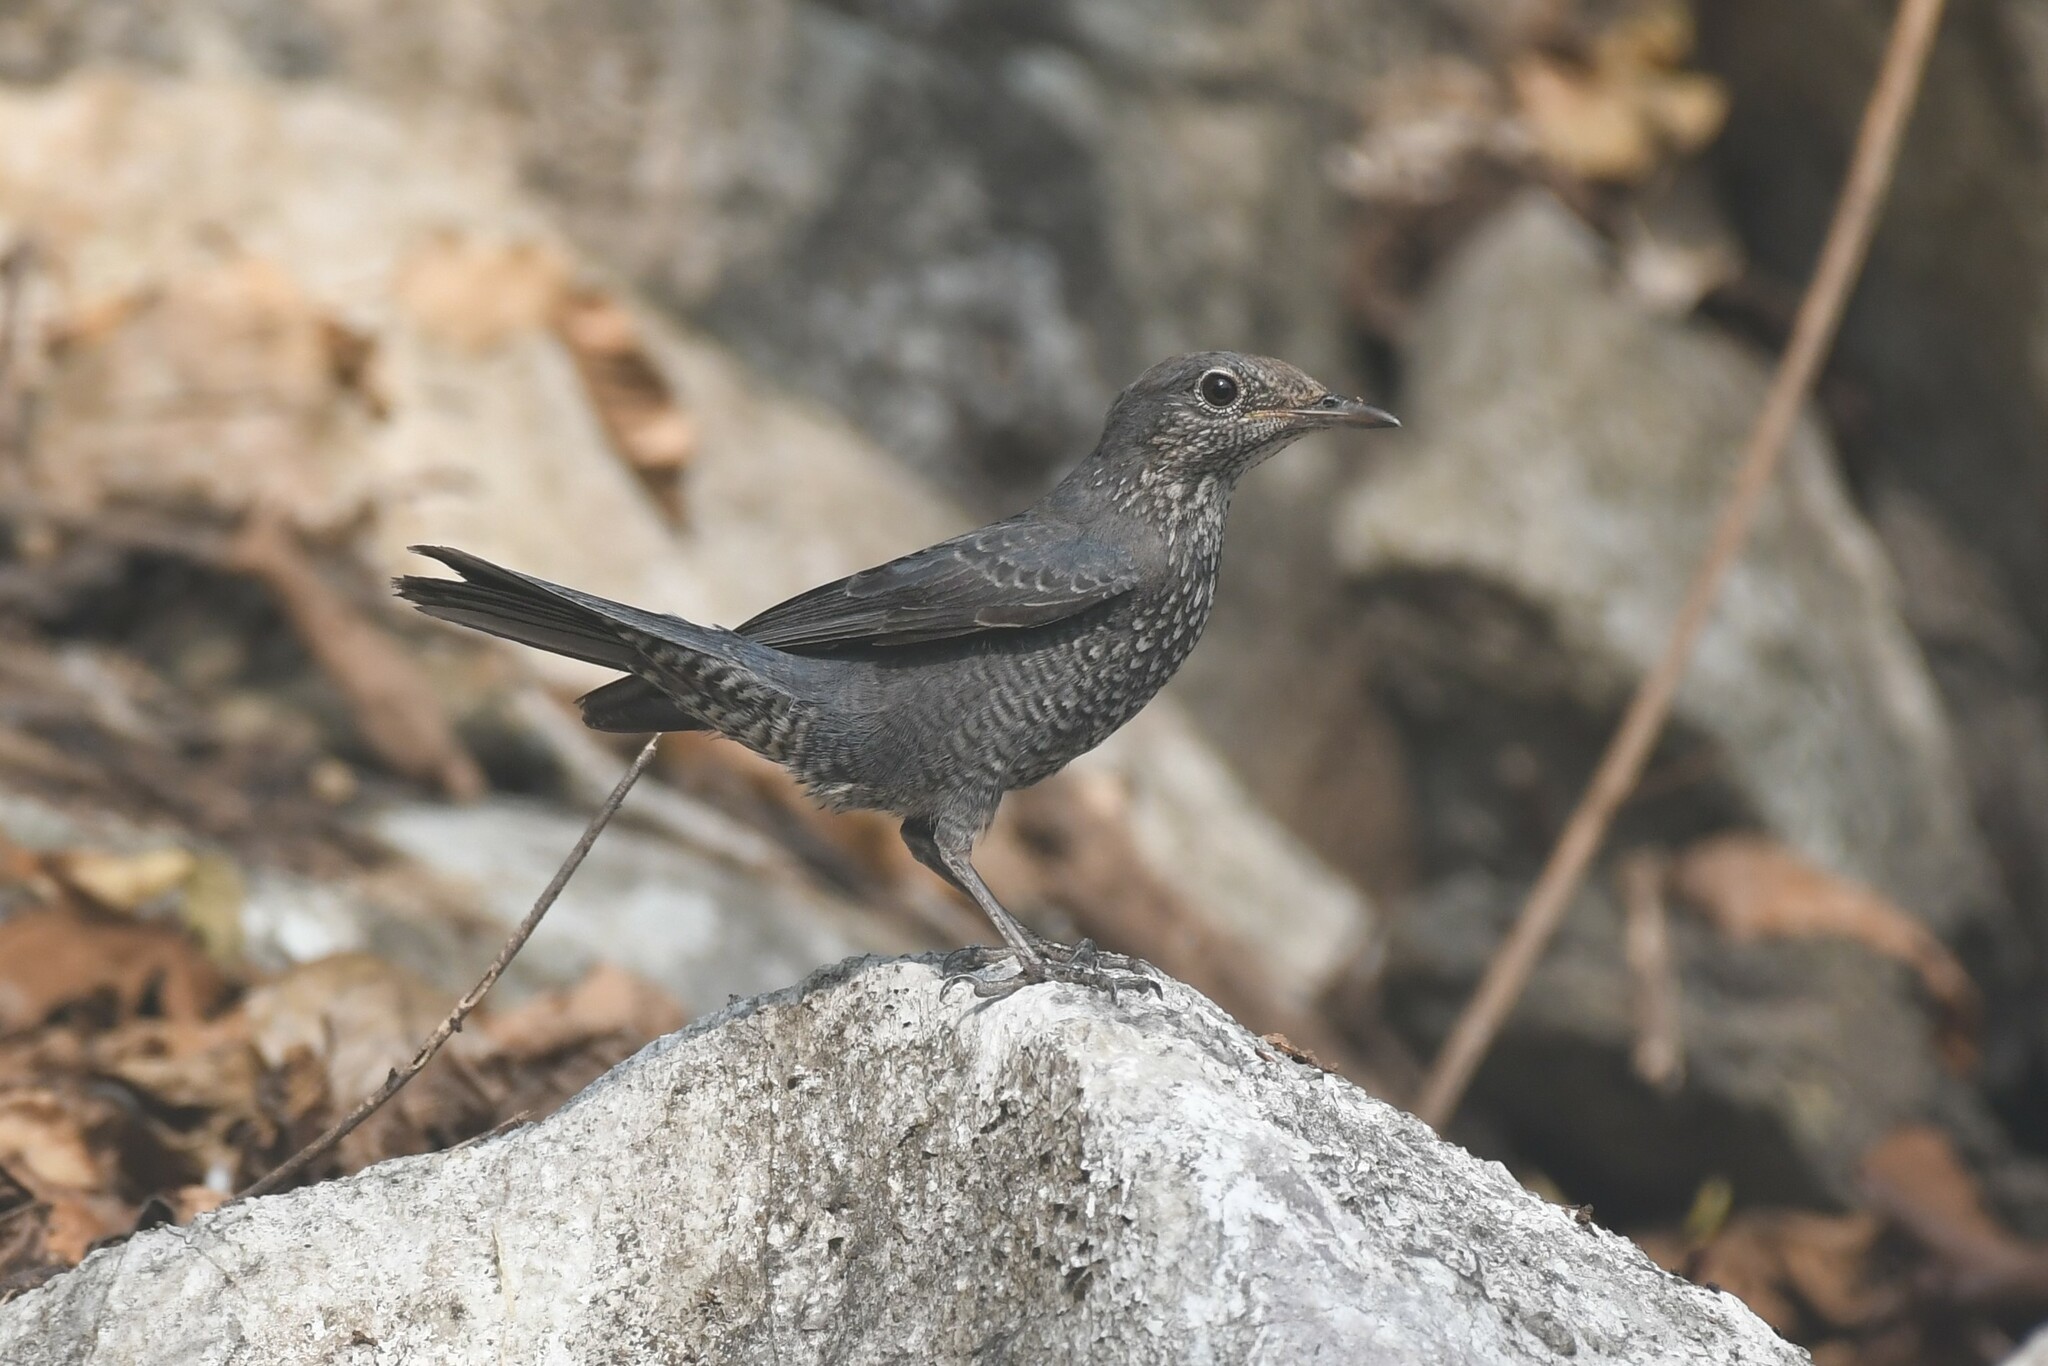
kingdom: Animalia
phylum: Chordata
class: Aves
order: Passeriformes
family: Muscicapidae
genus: Monticola
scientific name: Monticola solitarius
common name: Blue rock thrush
